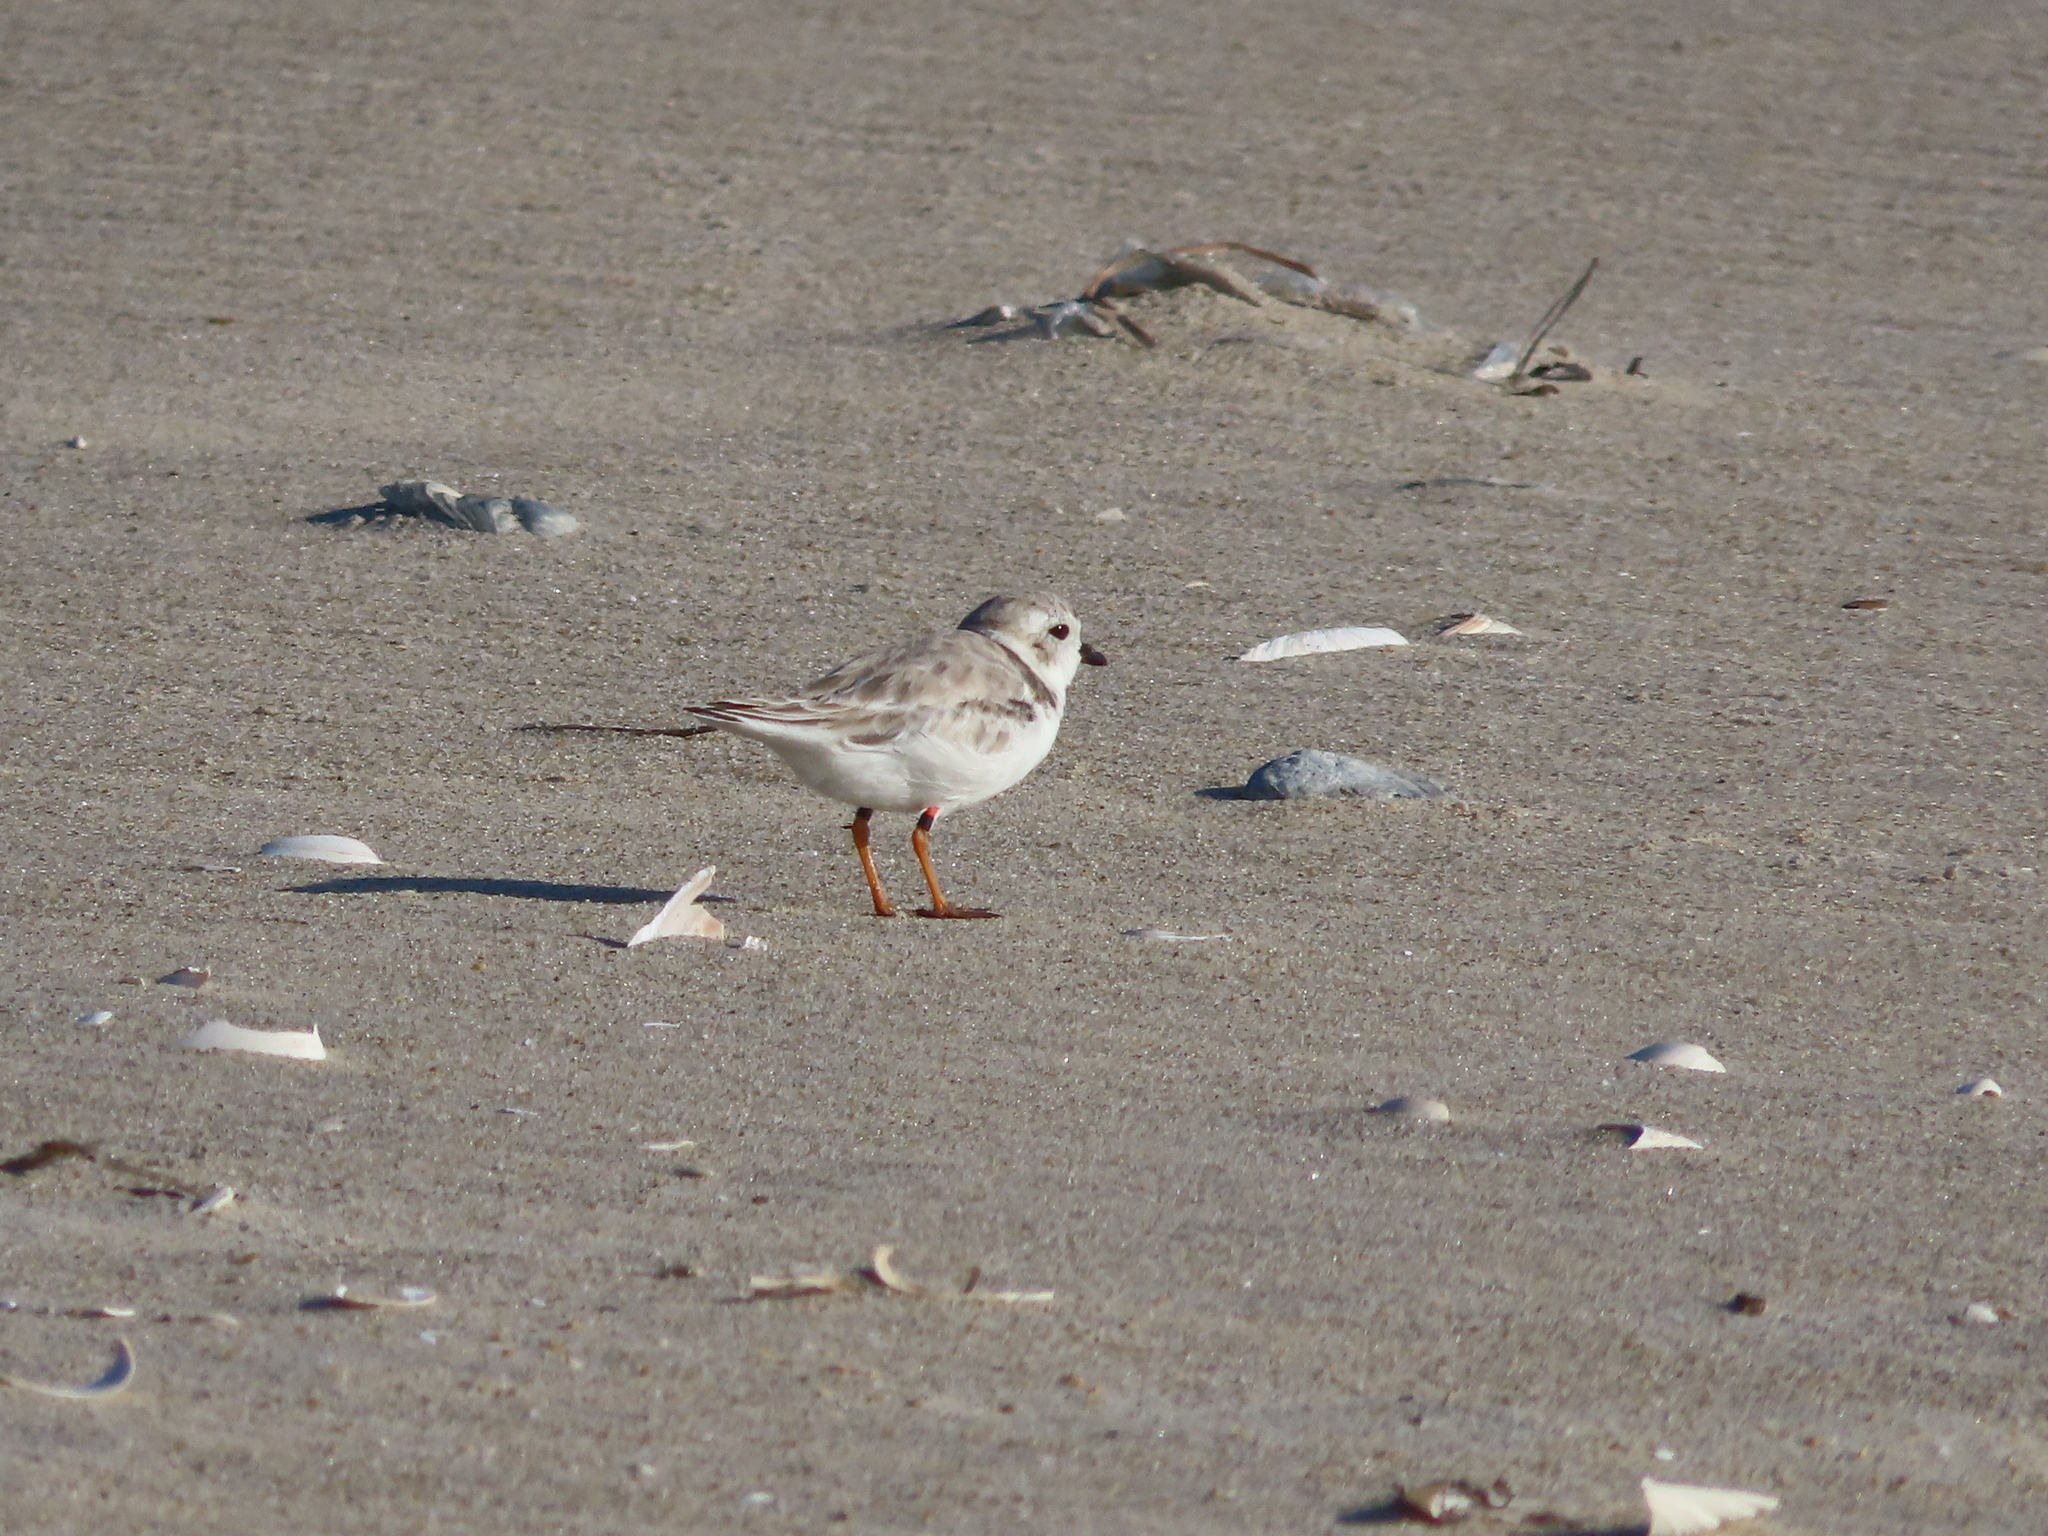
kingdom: Animalia
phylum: Chordata
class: Aves
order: Charadriiformes
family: Charadriidae
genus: Charadrius
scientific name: Charadrius melodus
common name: Piping plover
